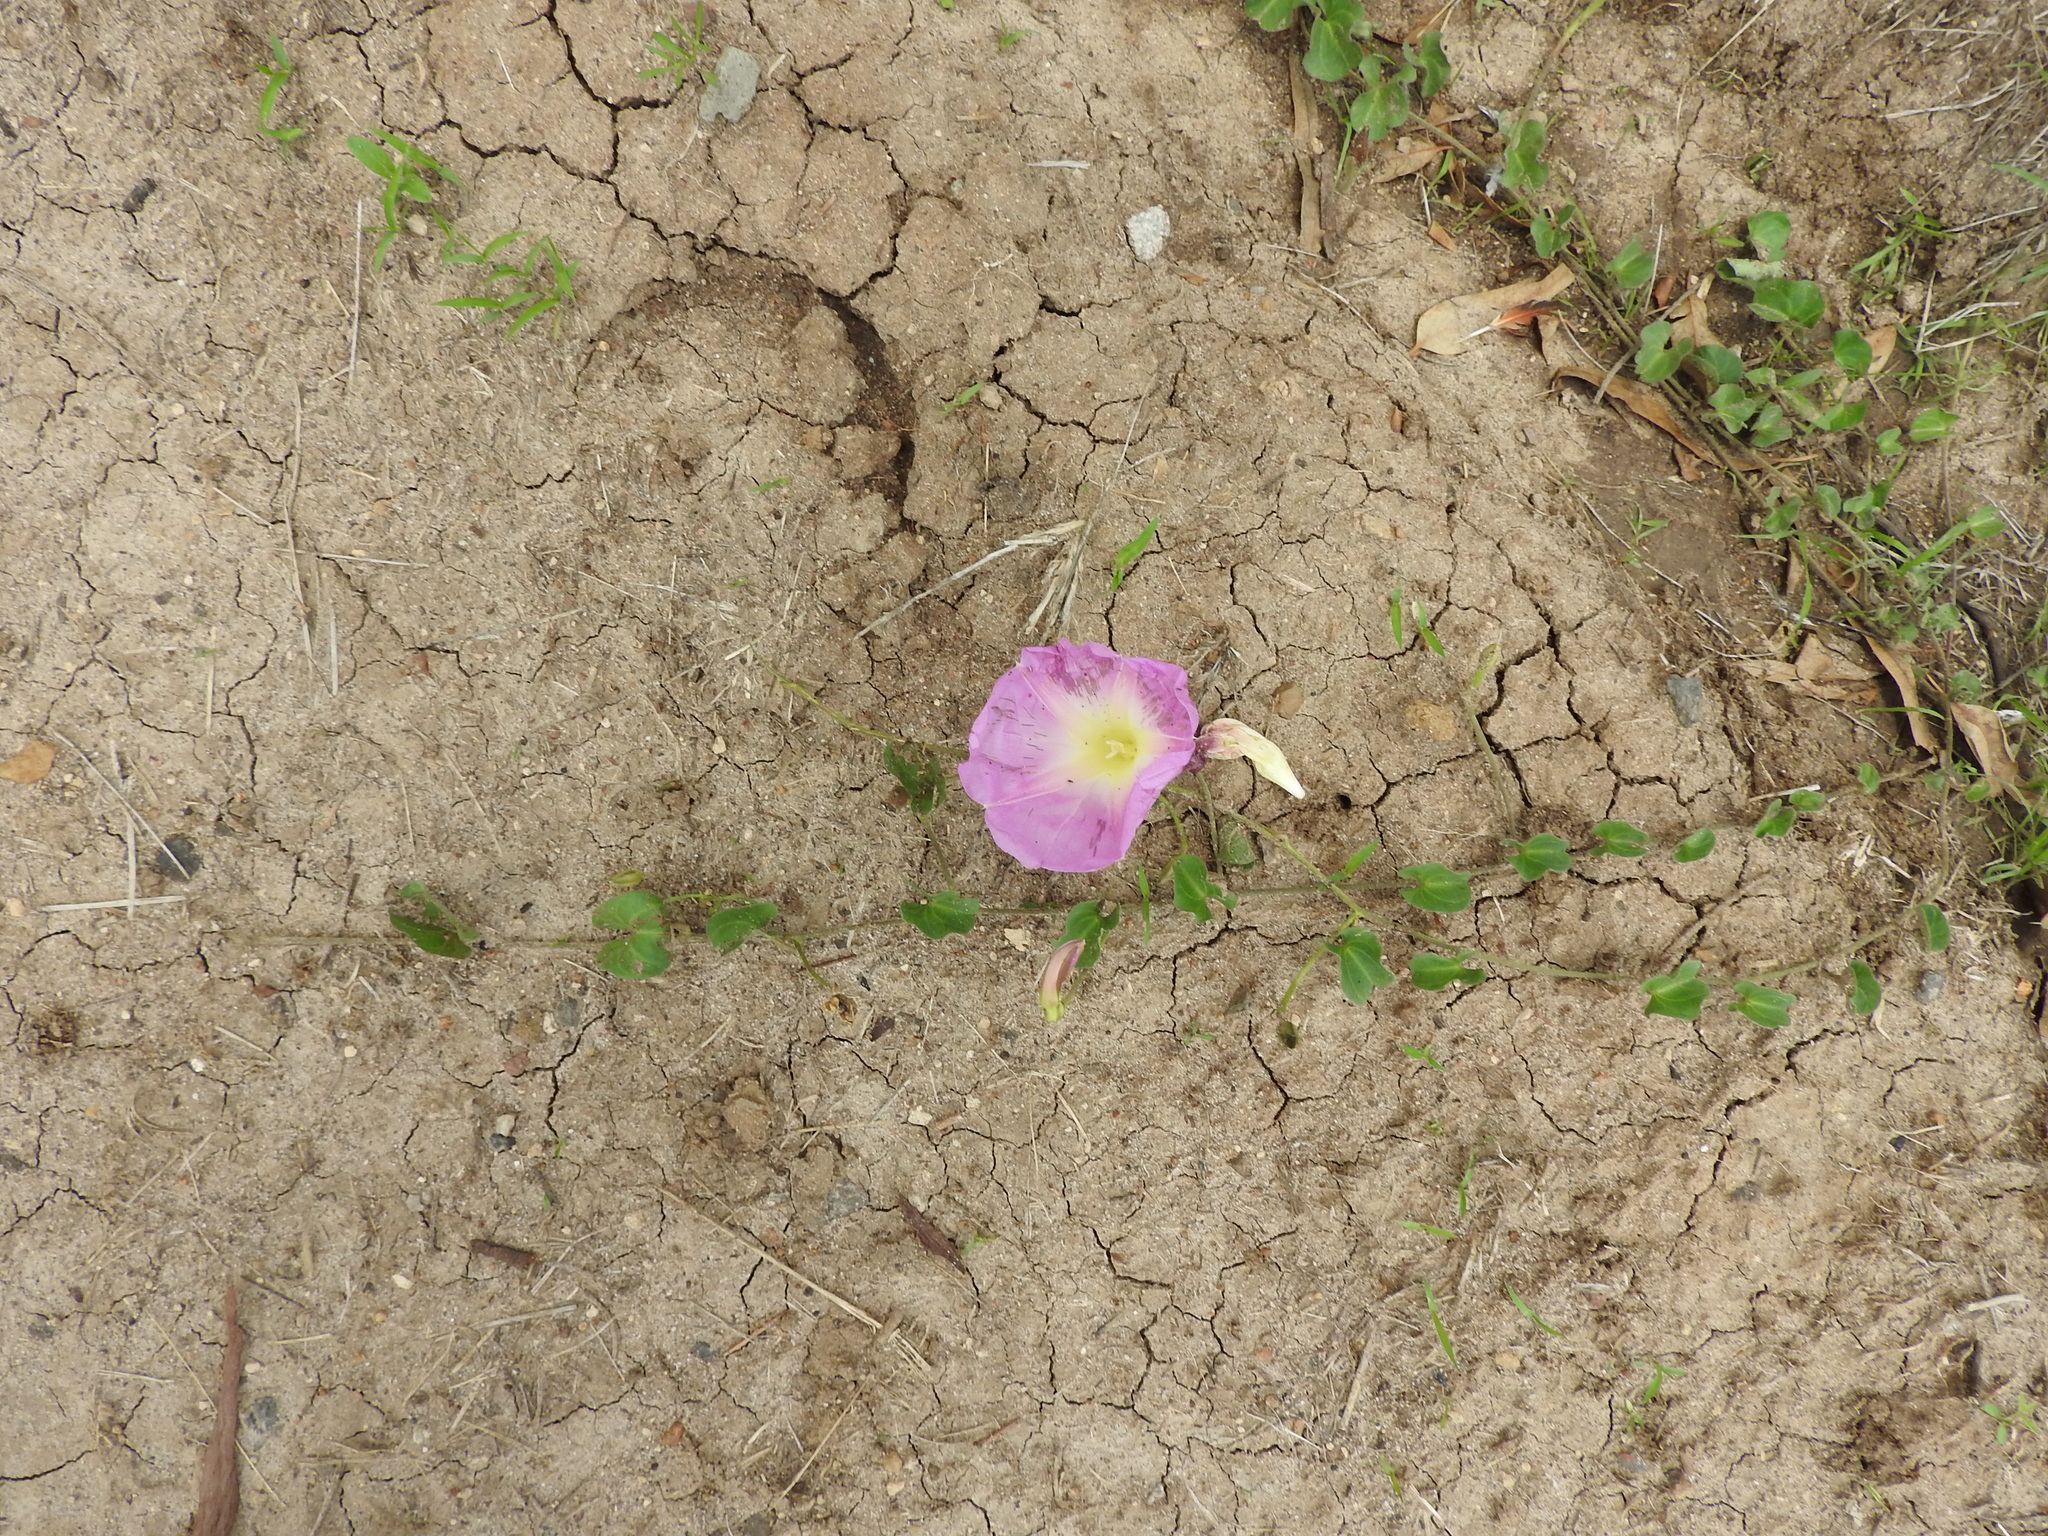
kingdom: Plantae
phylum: Tracheophyta
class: Magnoliopsida
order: Solanales
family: Convolvulaceae
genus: Ipomoea
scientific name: Ipomoea hartwegii
